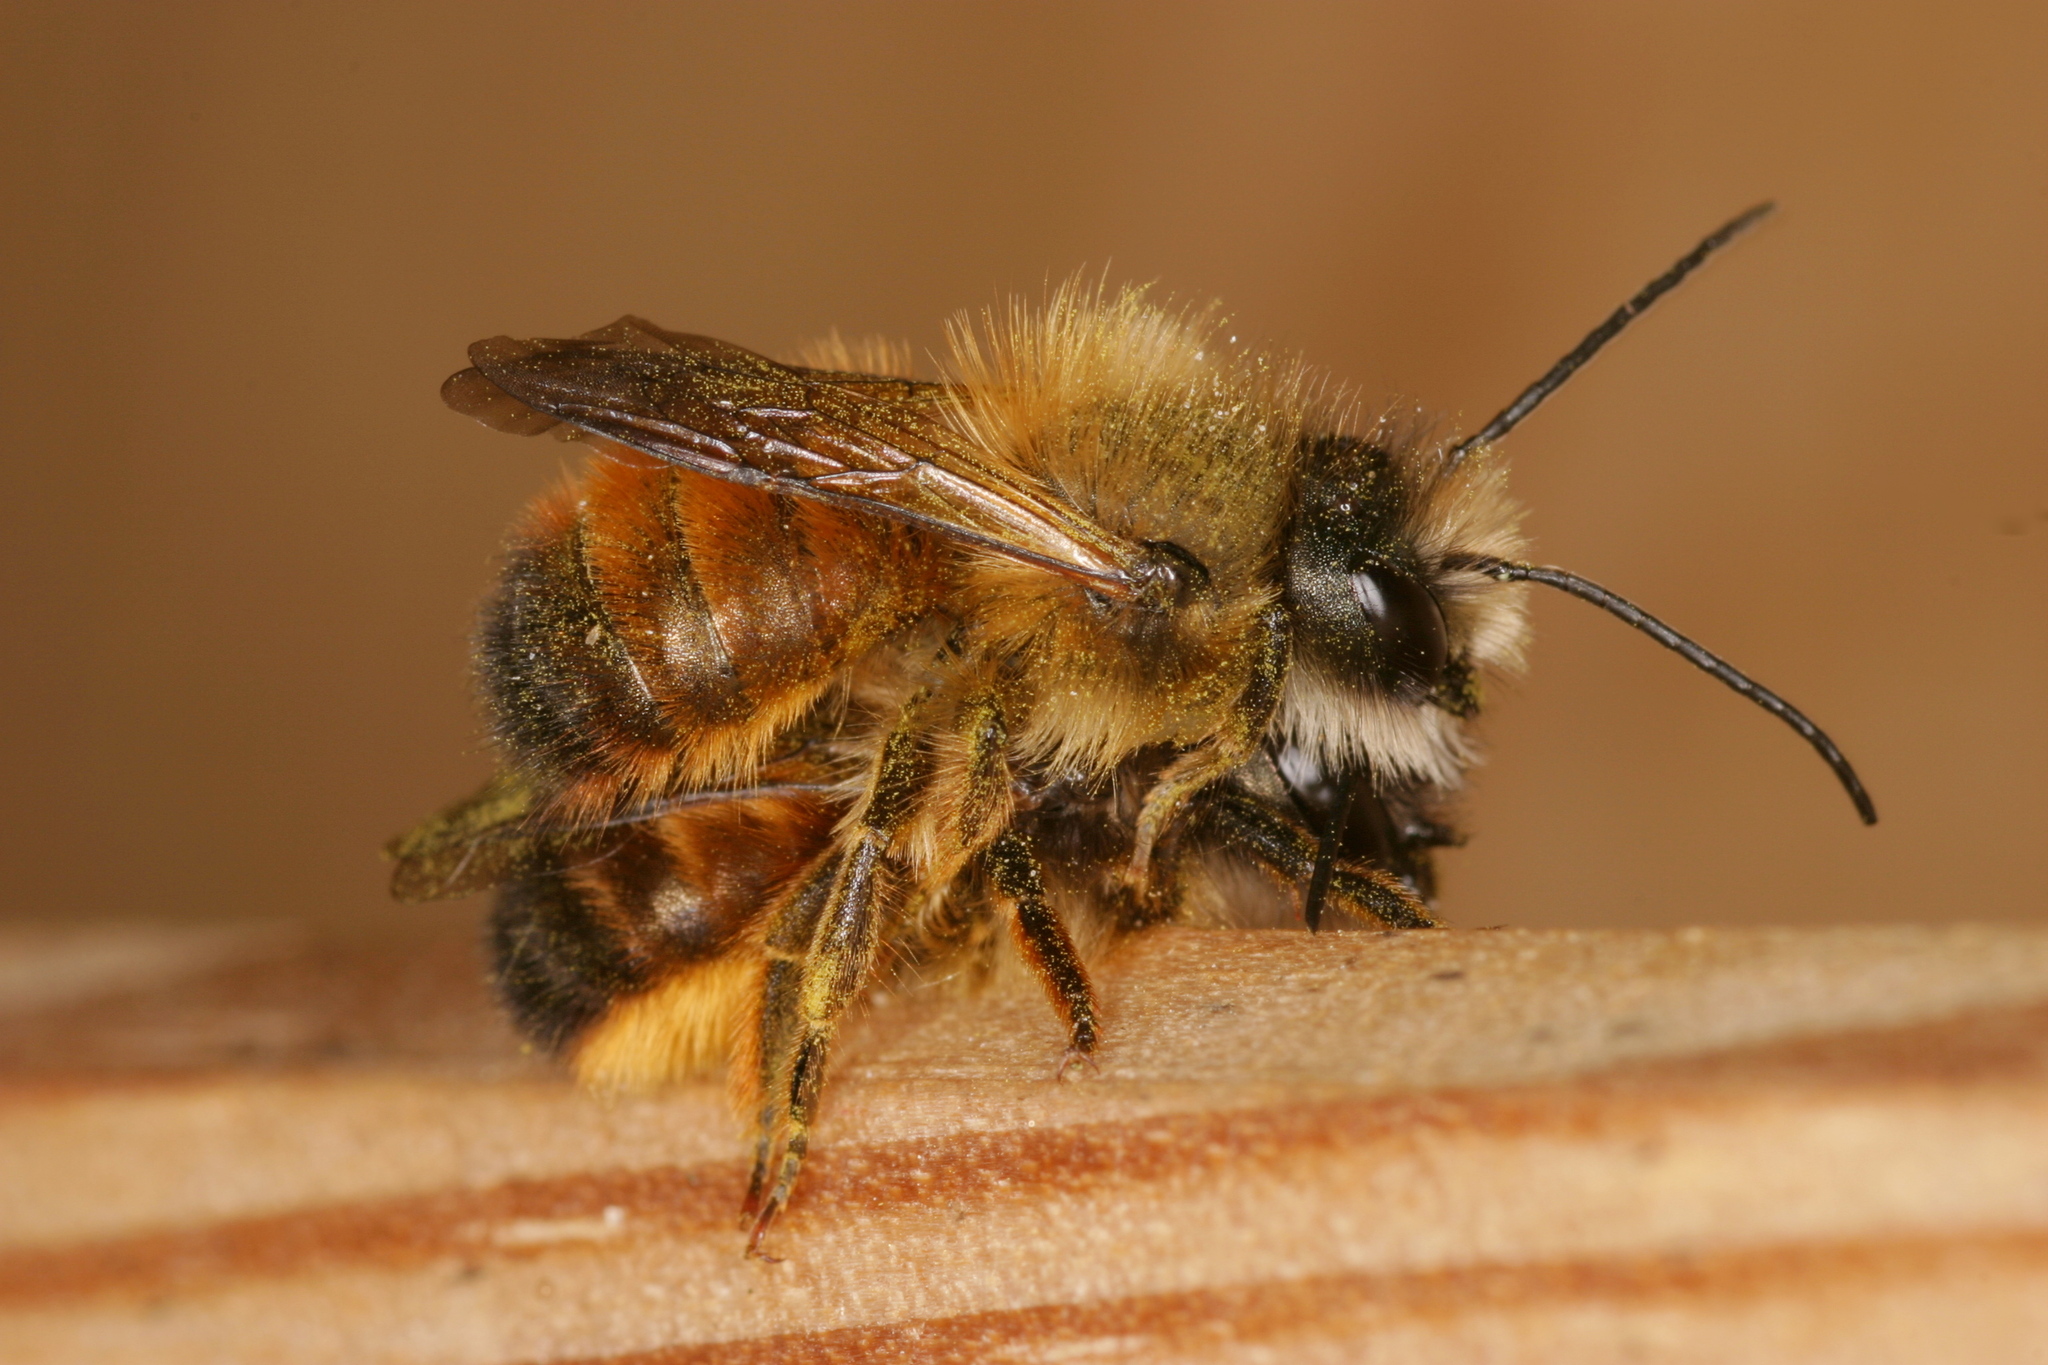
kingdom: Animalia
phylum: Arthropoda
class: Insecta
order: Hymenoptera
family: Megachilidae
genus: Osmia
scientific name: Osmia bicornis
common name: Red mason bee
